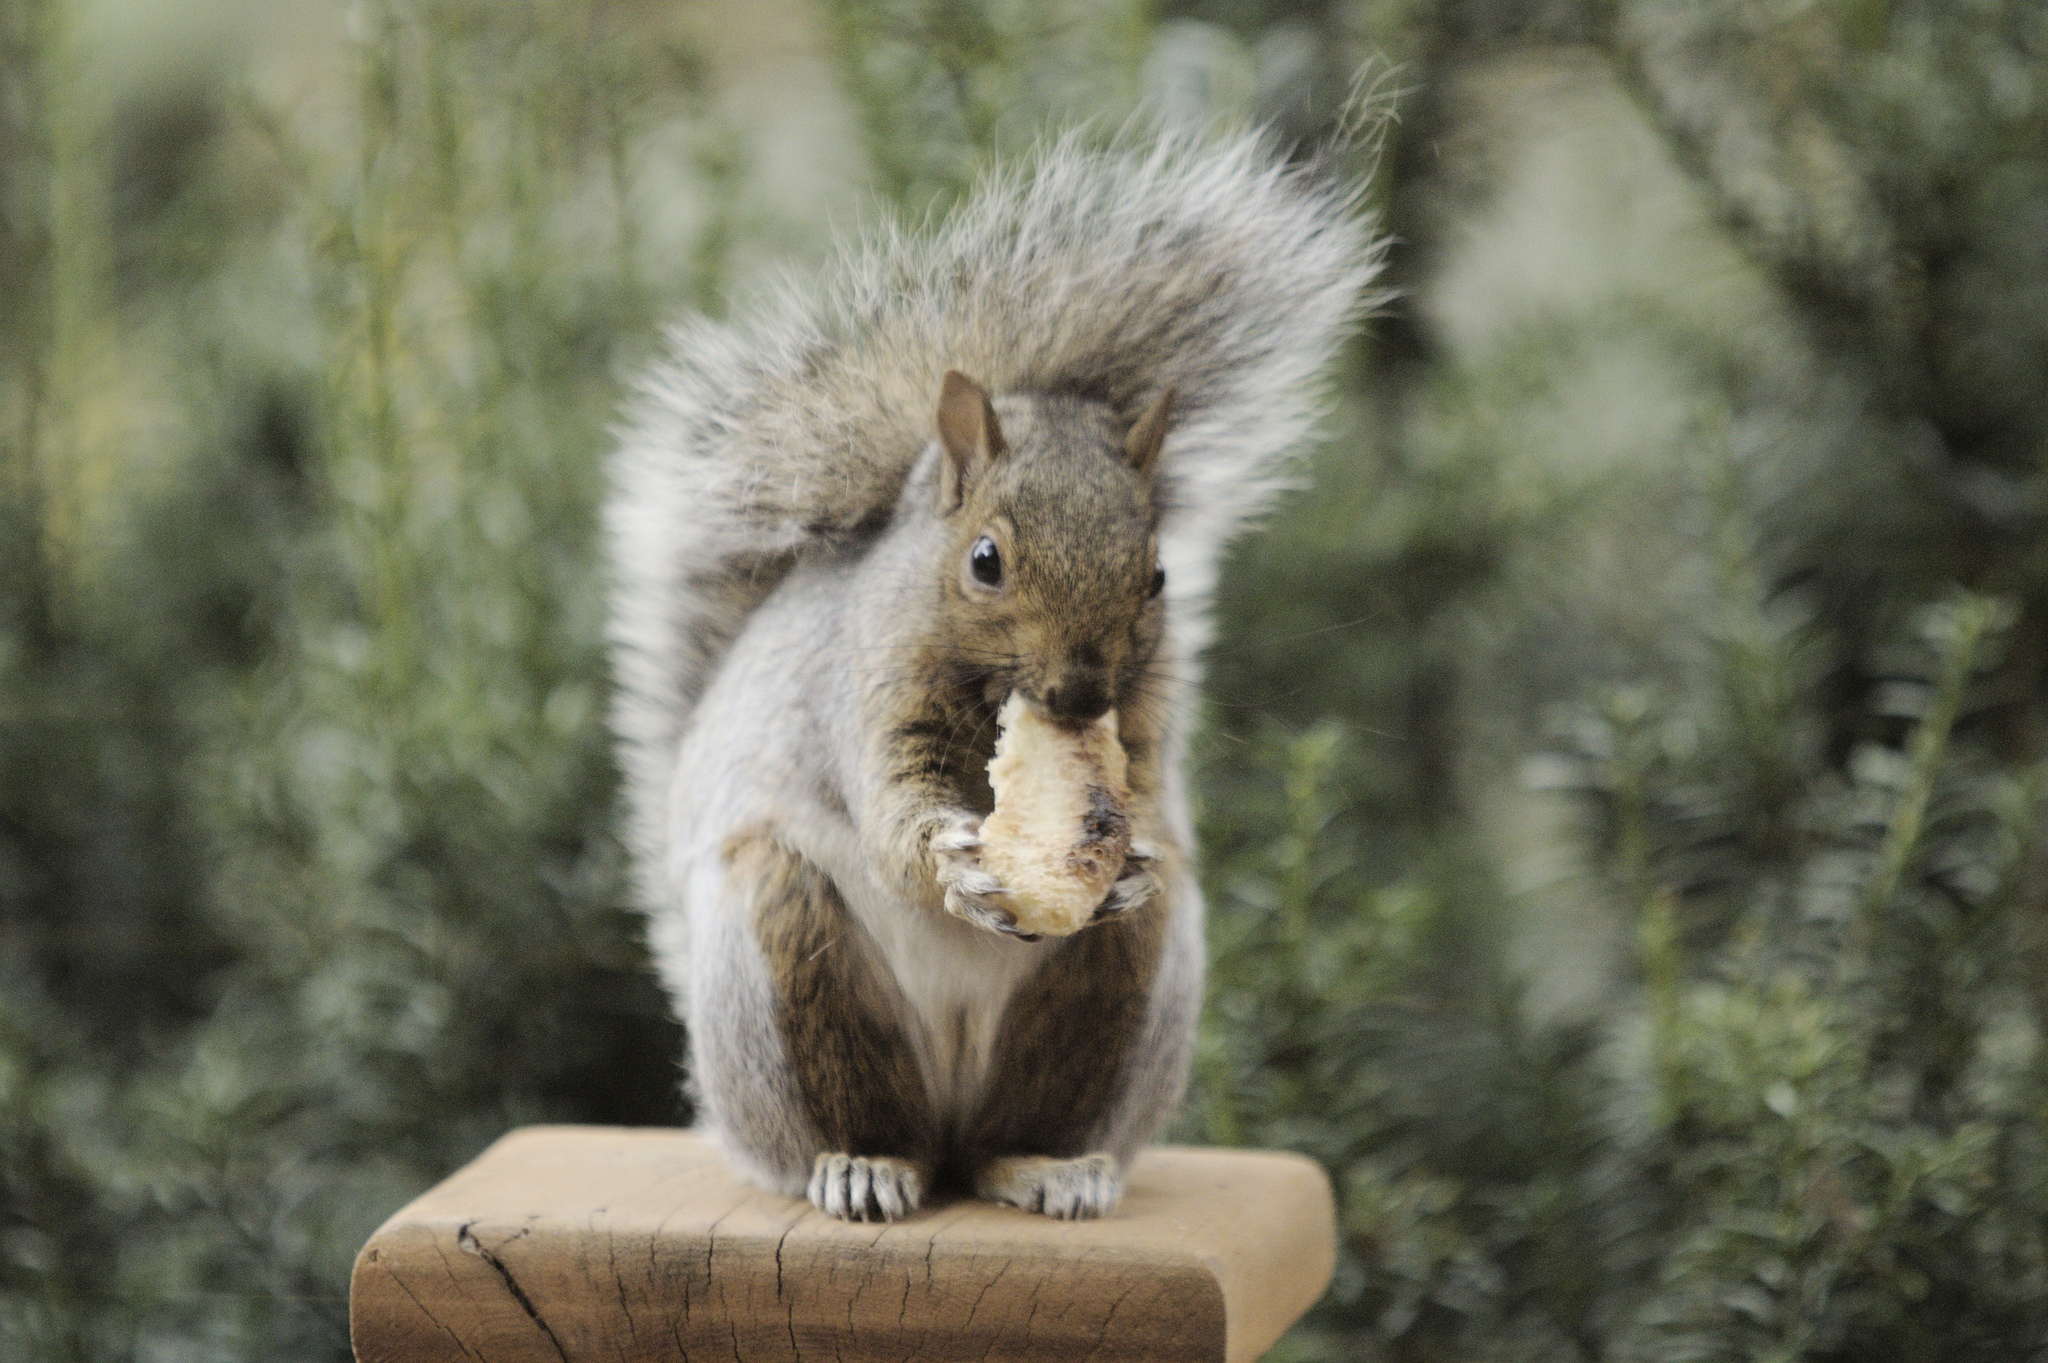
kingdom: Animalia
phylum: Chordata
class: Mammalia
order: Rodentia
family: Sciuridae
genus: Sciurus
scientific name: Sciurus carolinensis
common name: Eastern gray squirrel
